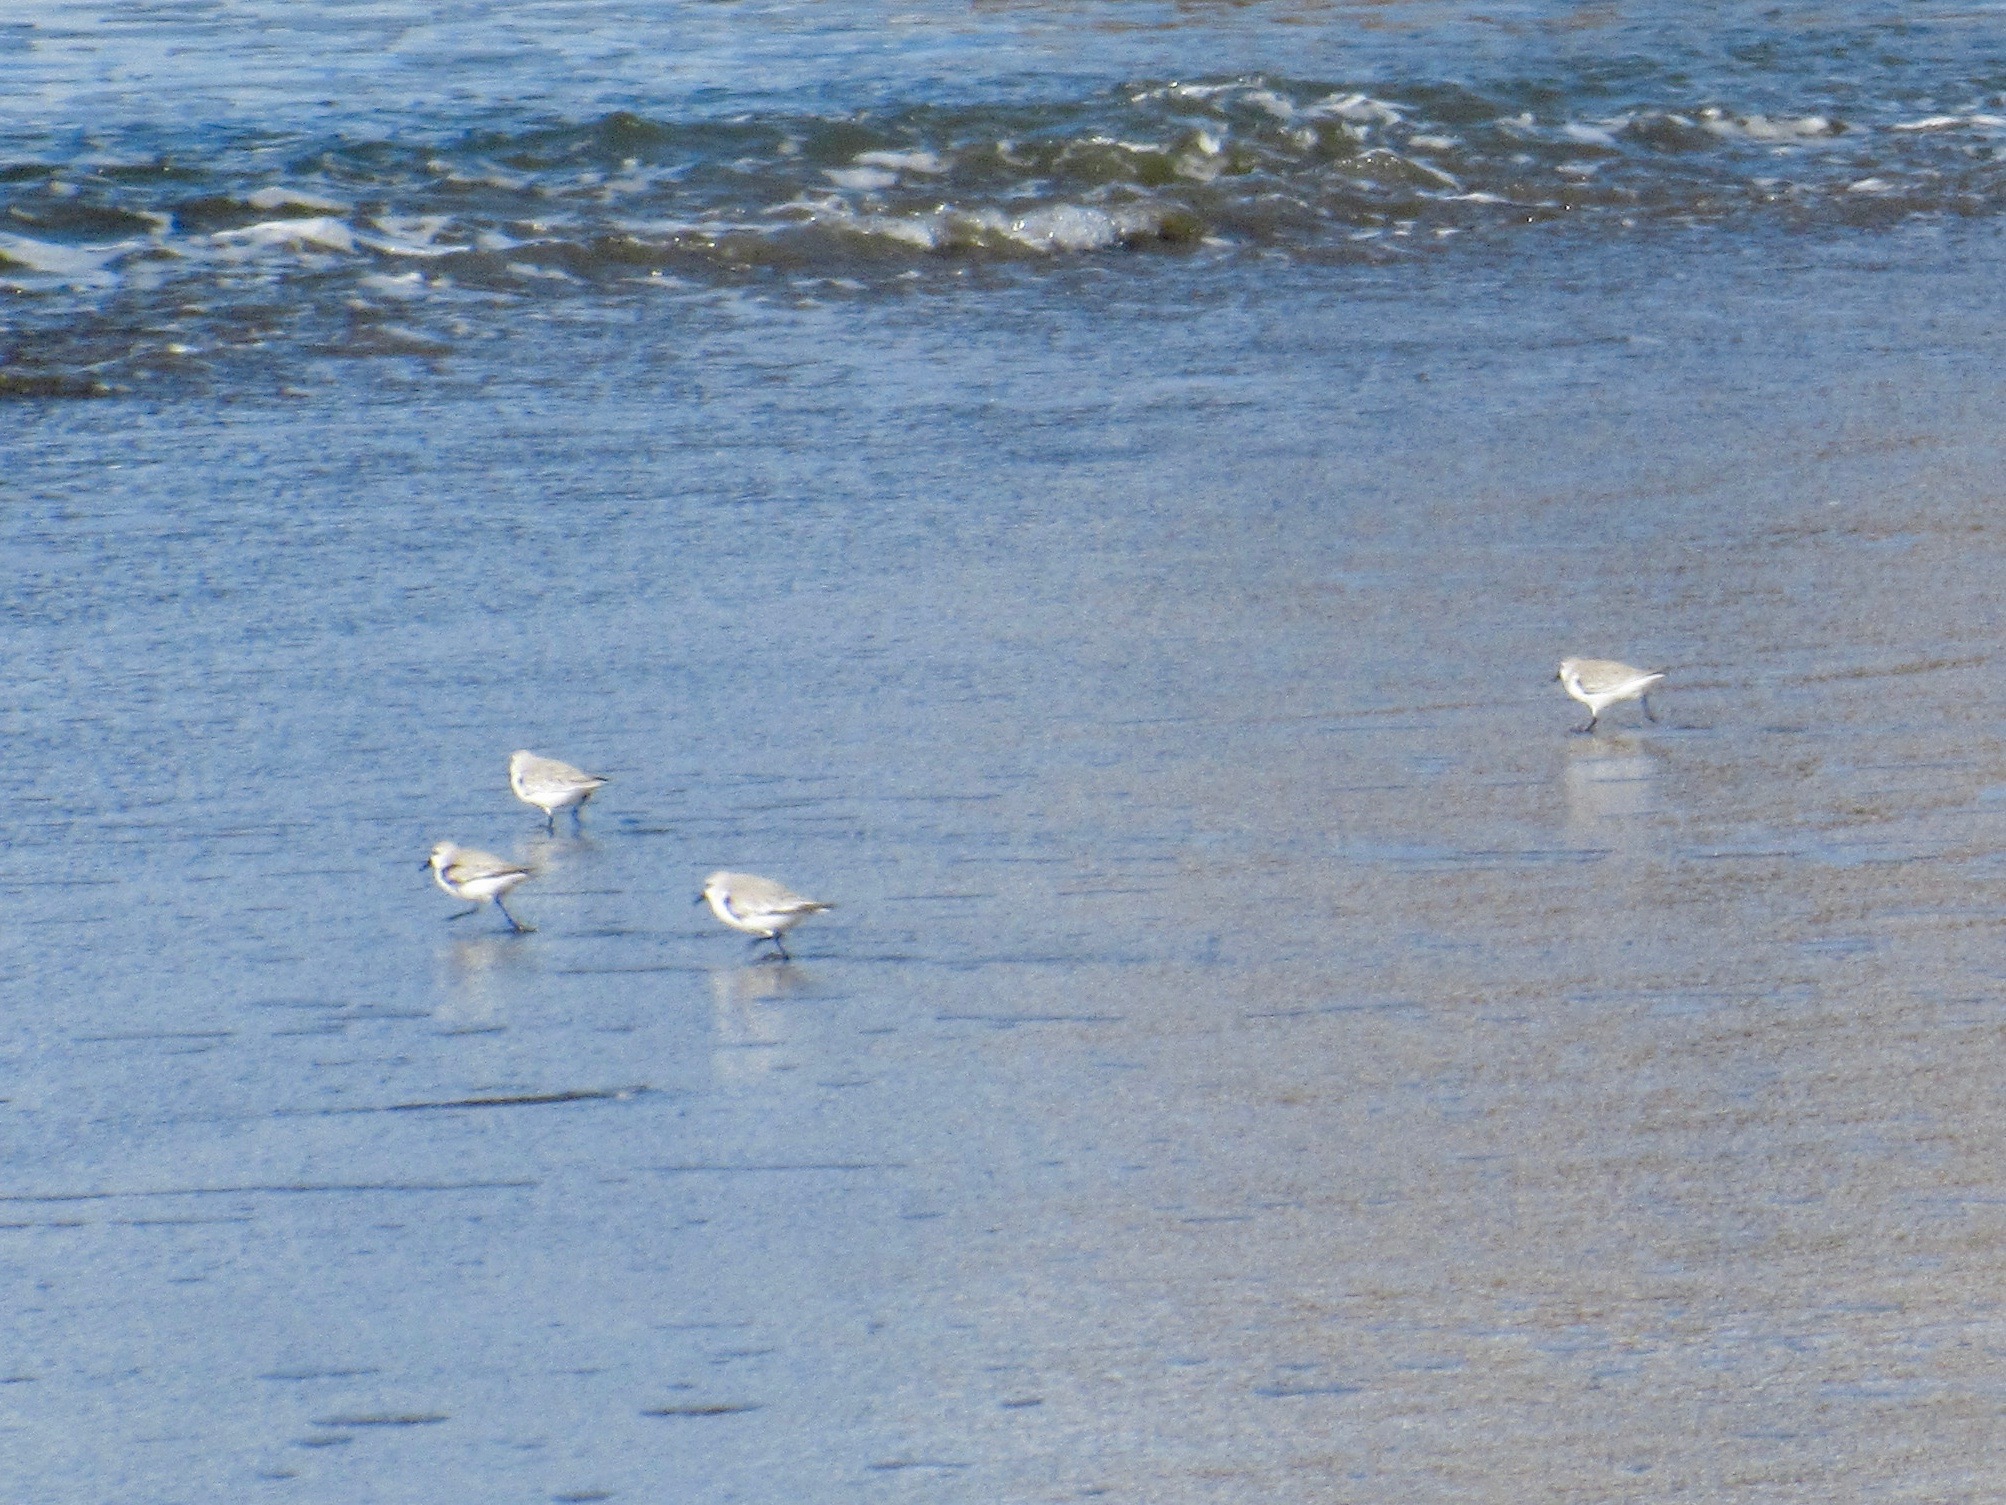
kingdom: Animalia
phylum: Chordata
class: Aves
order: Charadriiformes
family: Scolopacidae
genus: Calidris
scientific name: Calidris alba
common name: Sanderling
